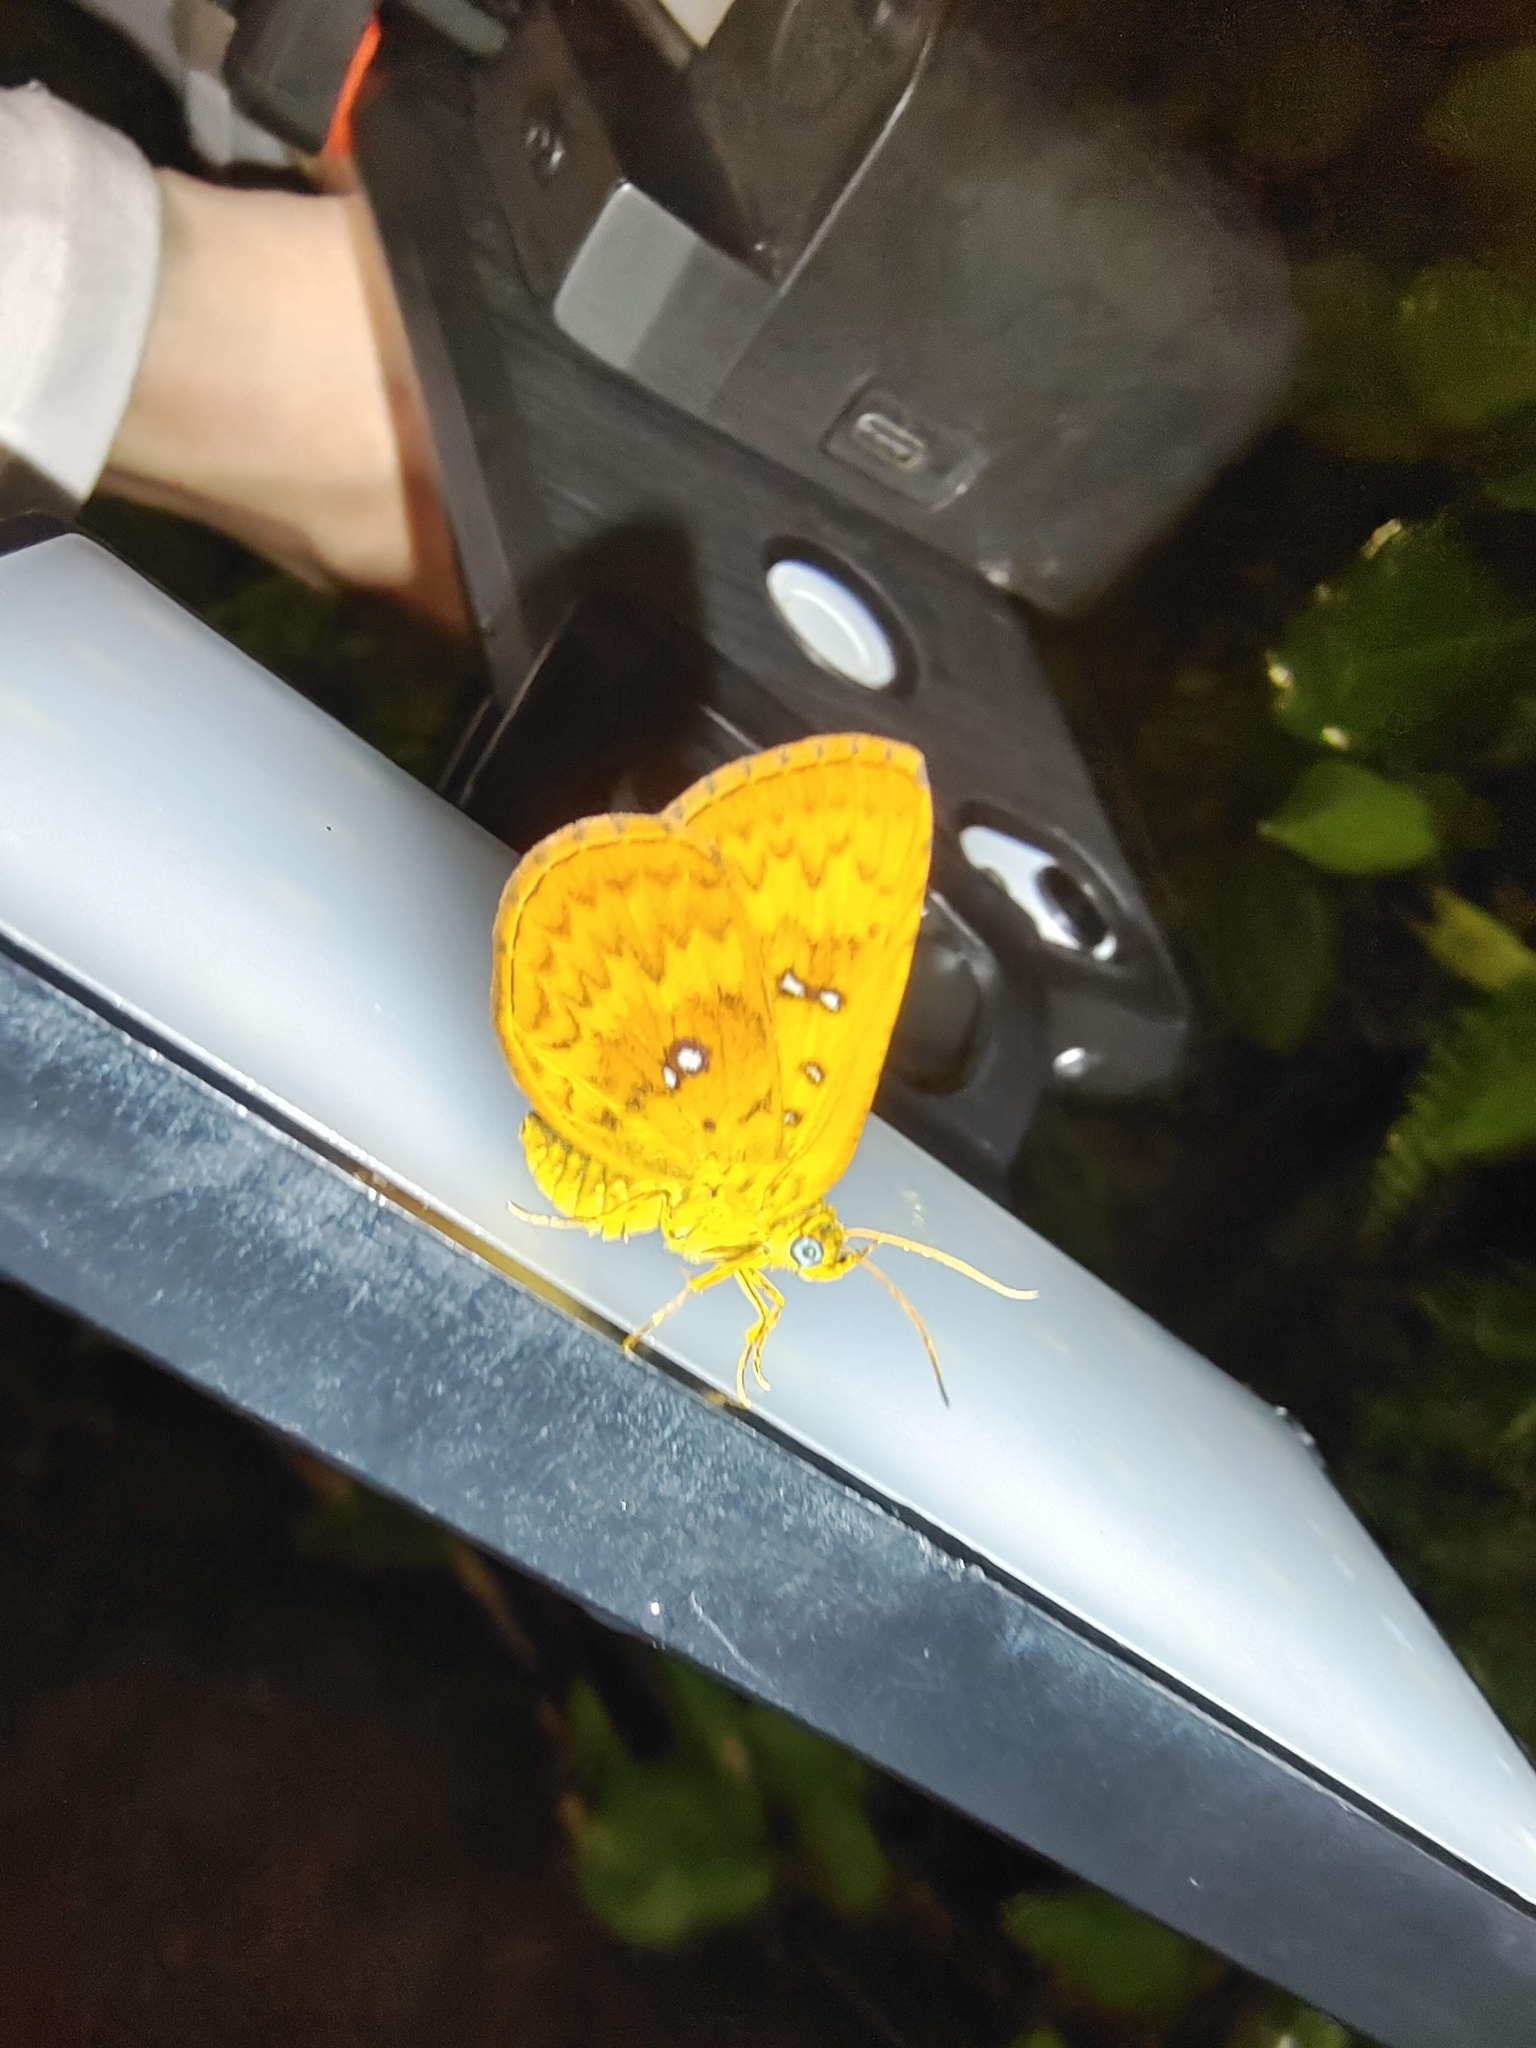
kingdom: Animalia
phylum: Arthropoda
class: Insecta
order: Lepidoptera
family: Callidulidae
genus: Tetragonus
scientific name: Tetragonus lycaenoides
